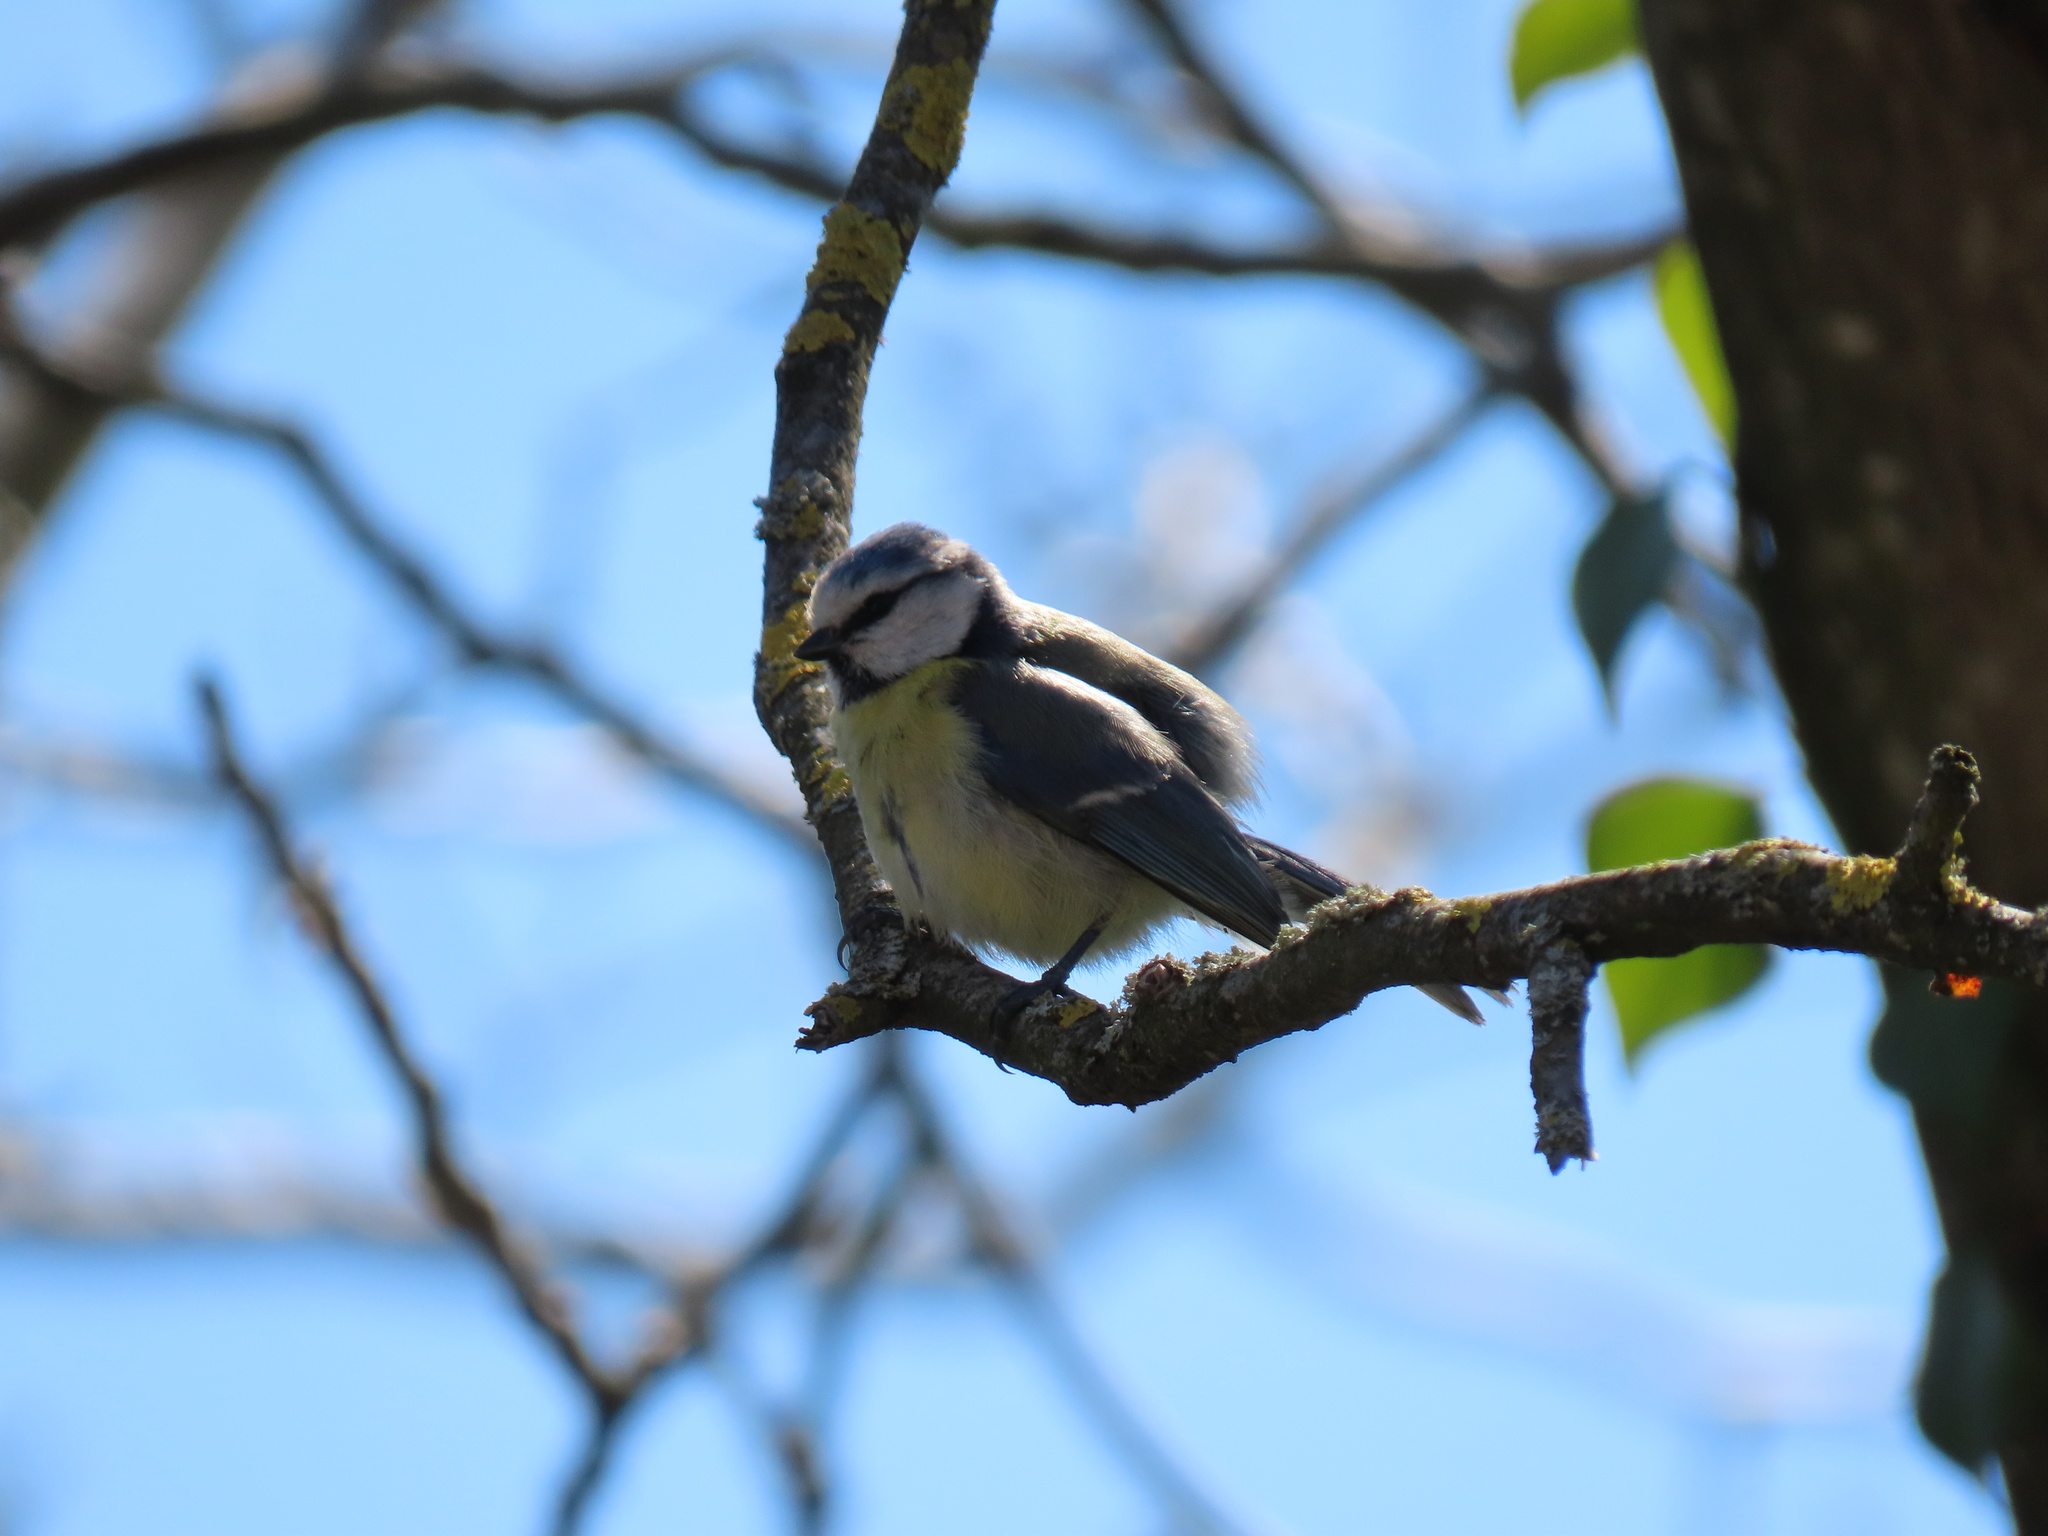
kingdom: Animalia
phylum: Chordata
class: Aves
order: Passeriformes
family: Paridae
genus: Cyanistes
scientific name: Cyanistes caeruleus
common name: Eurasian blue tit
